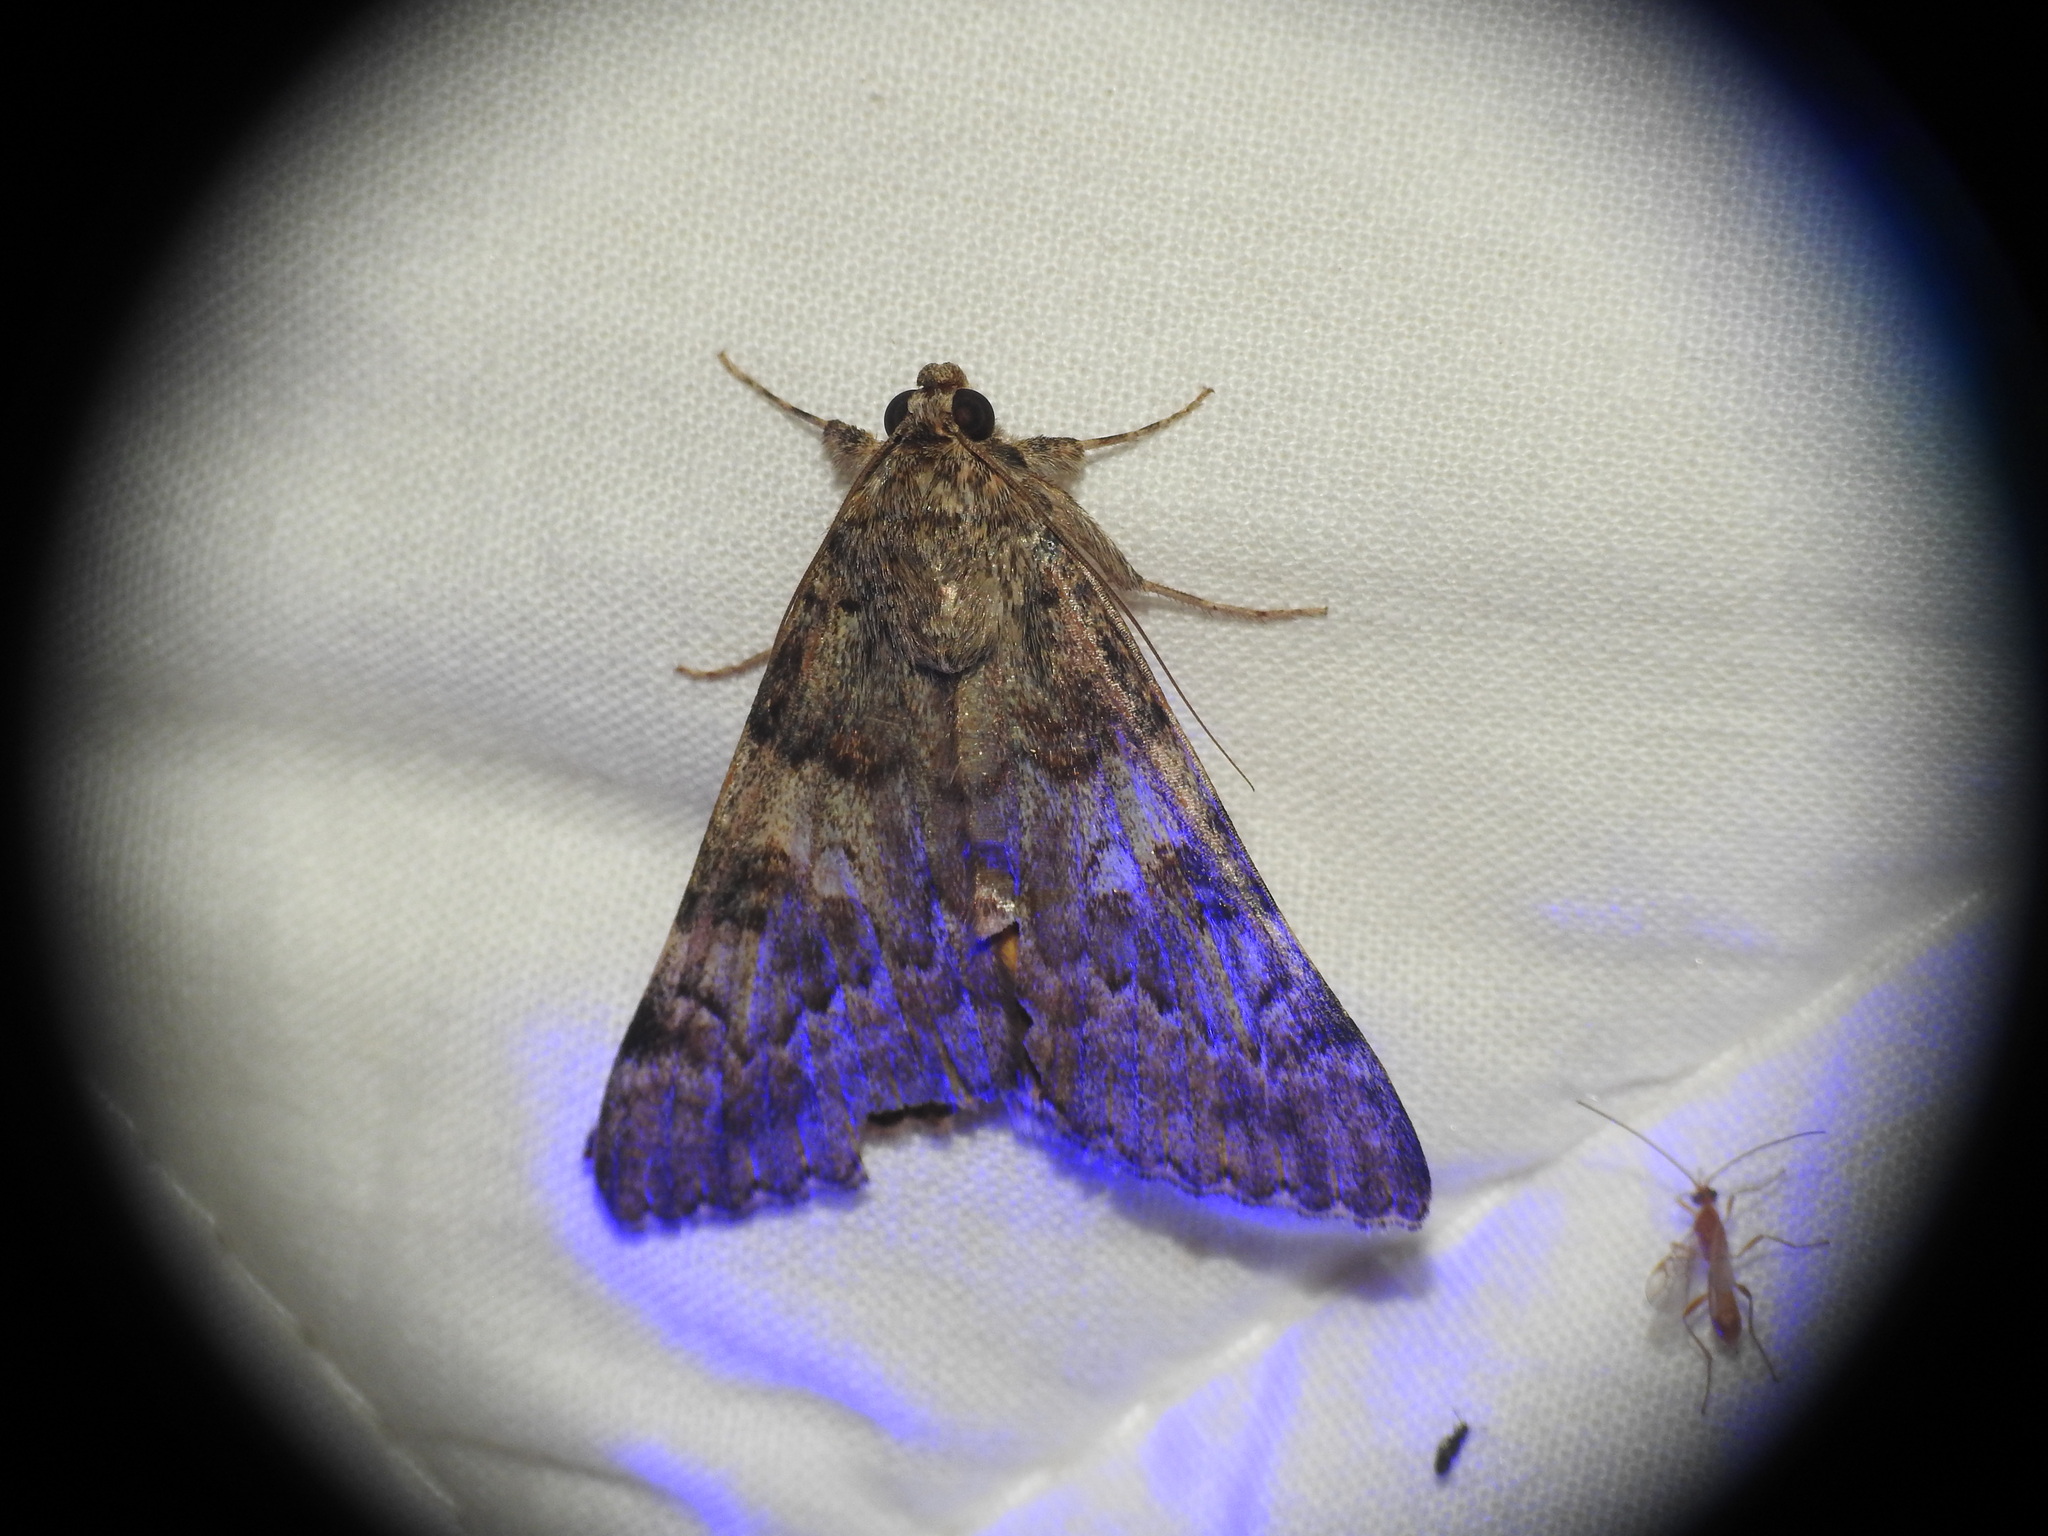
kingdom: Animalia
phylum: Arthropoda
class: Insecta
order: Lepidoptera
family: Erebidae
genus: Catocala
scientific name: Catocala nymphaea
